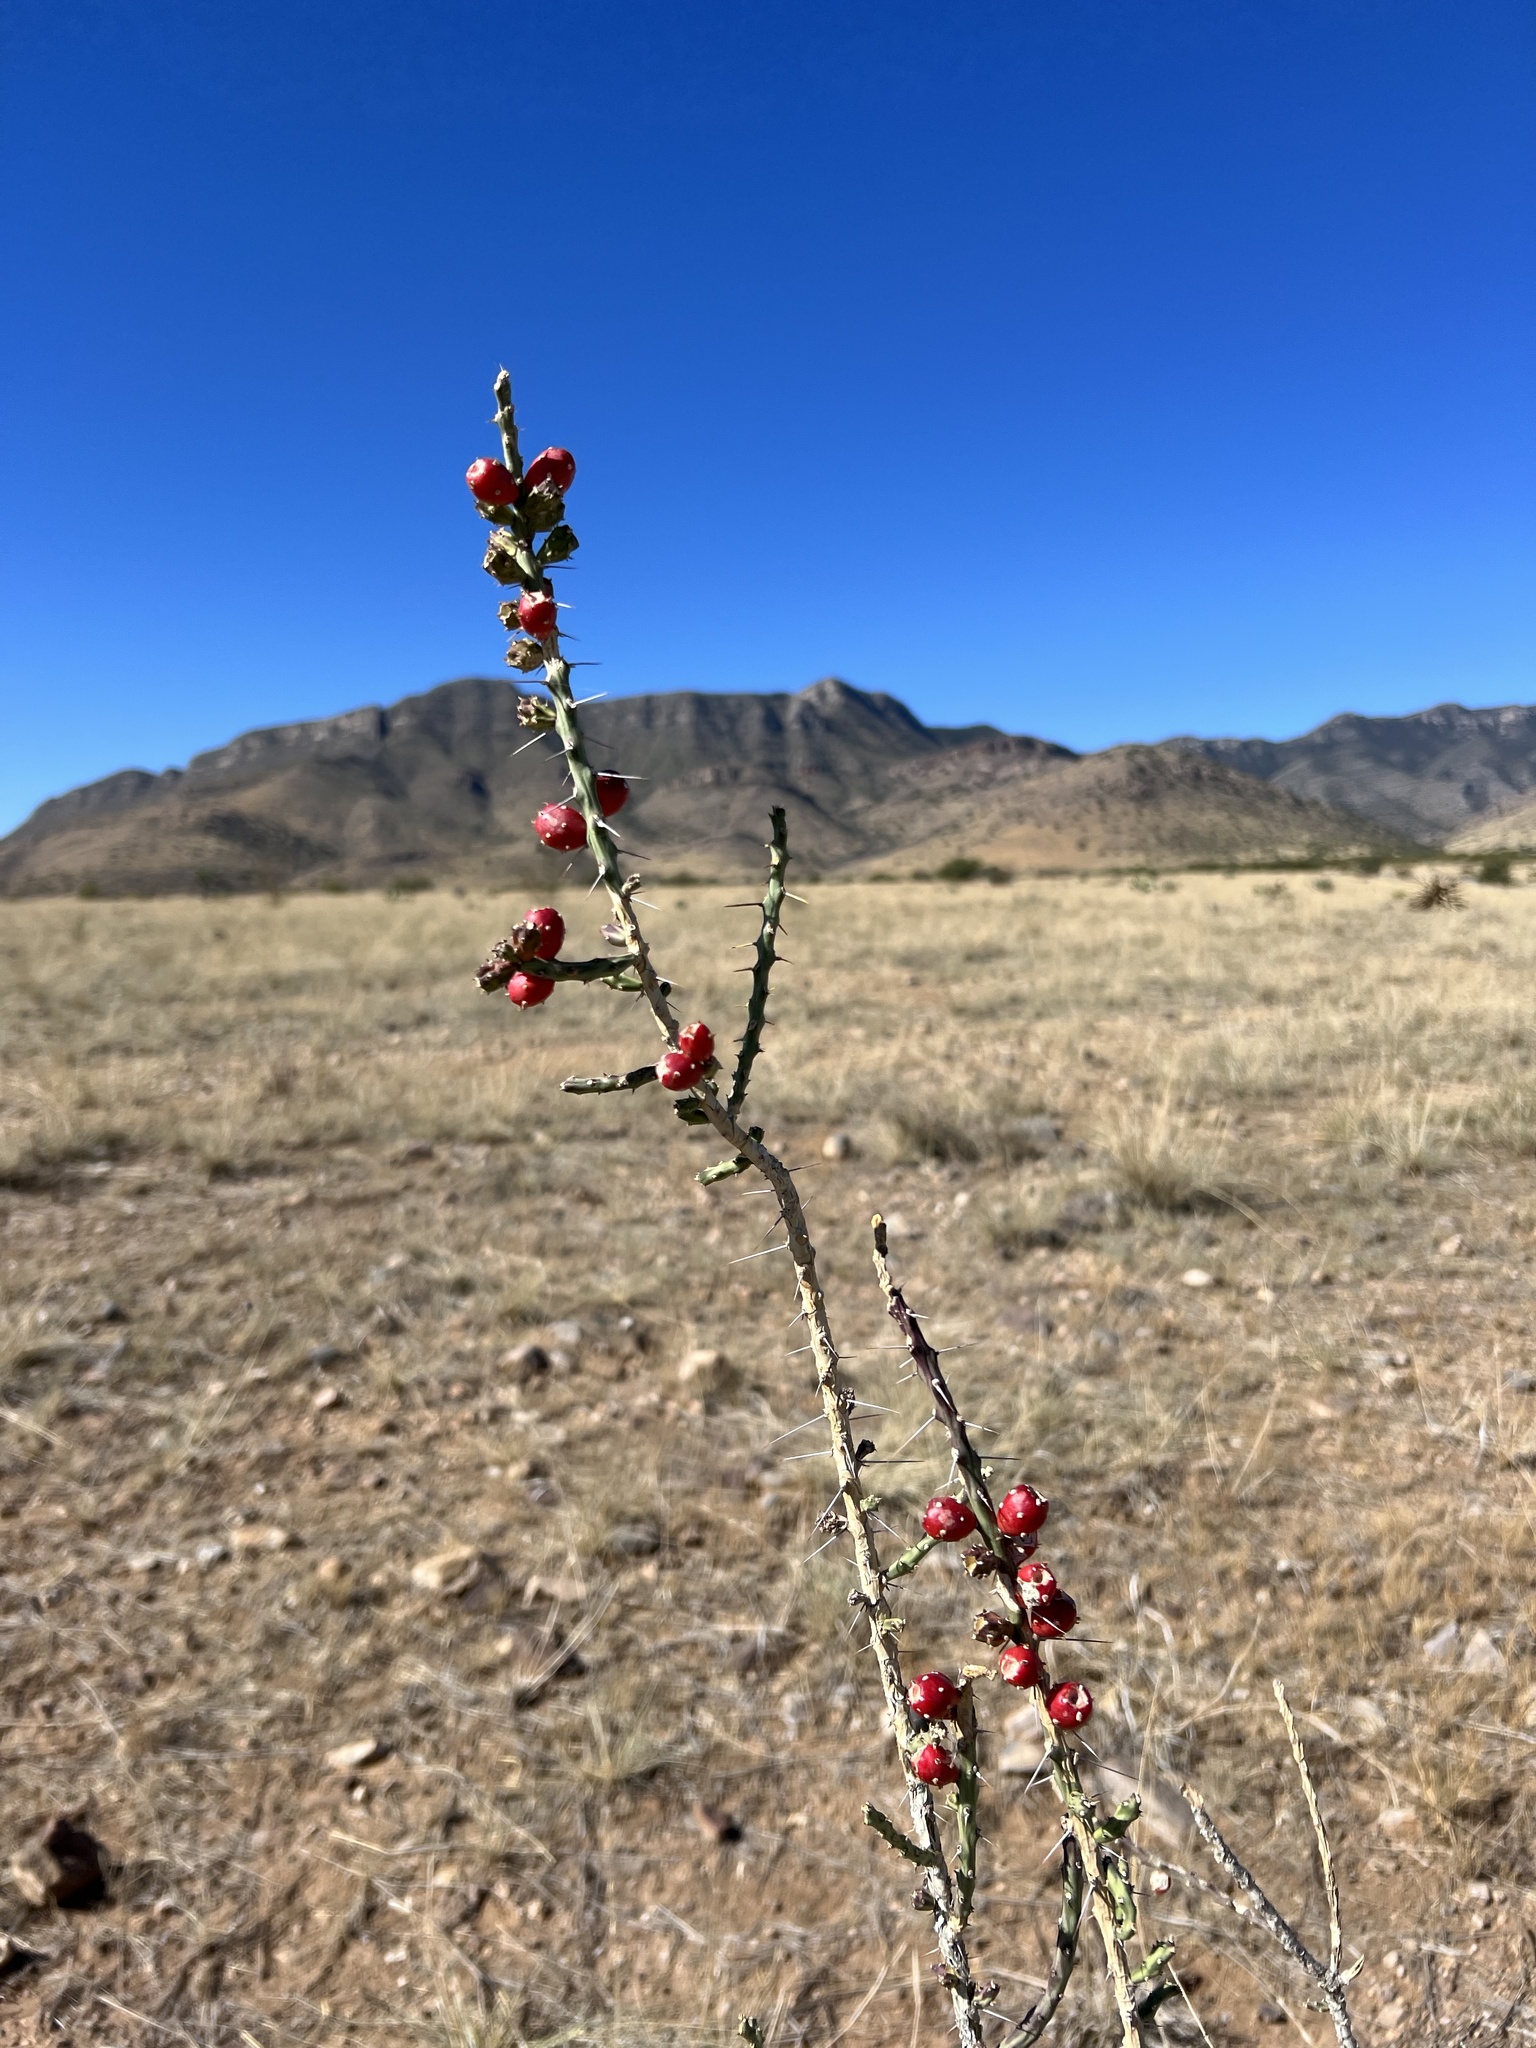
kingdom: Plantae
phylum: Tracheophyta
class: Magnoliopsida
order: Caryophyllales
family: Cactaceae
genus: Cylindropuntia
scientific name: Cylindropuntia leptocaulis
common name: Christmas cactus
